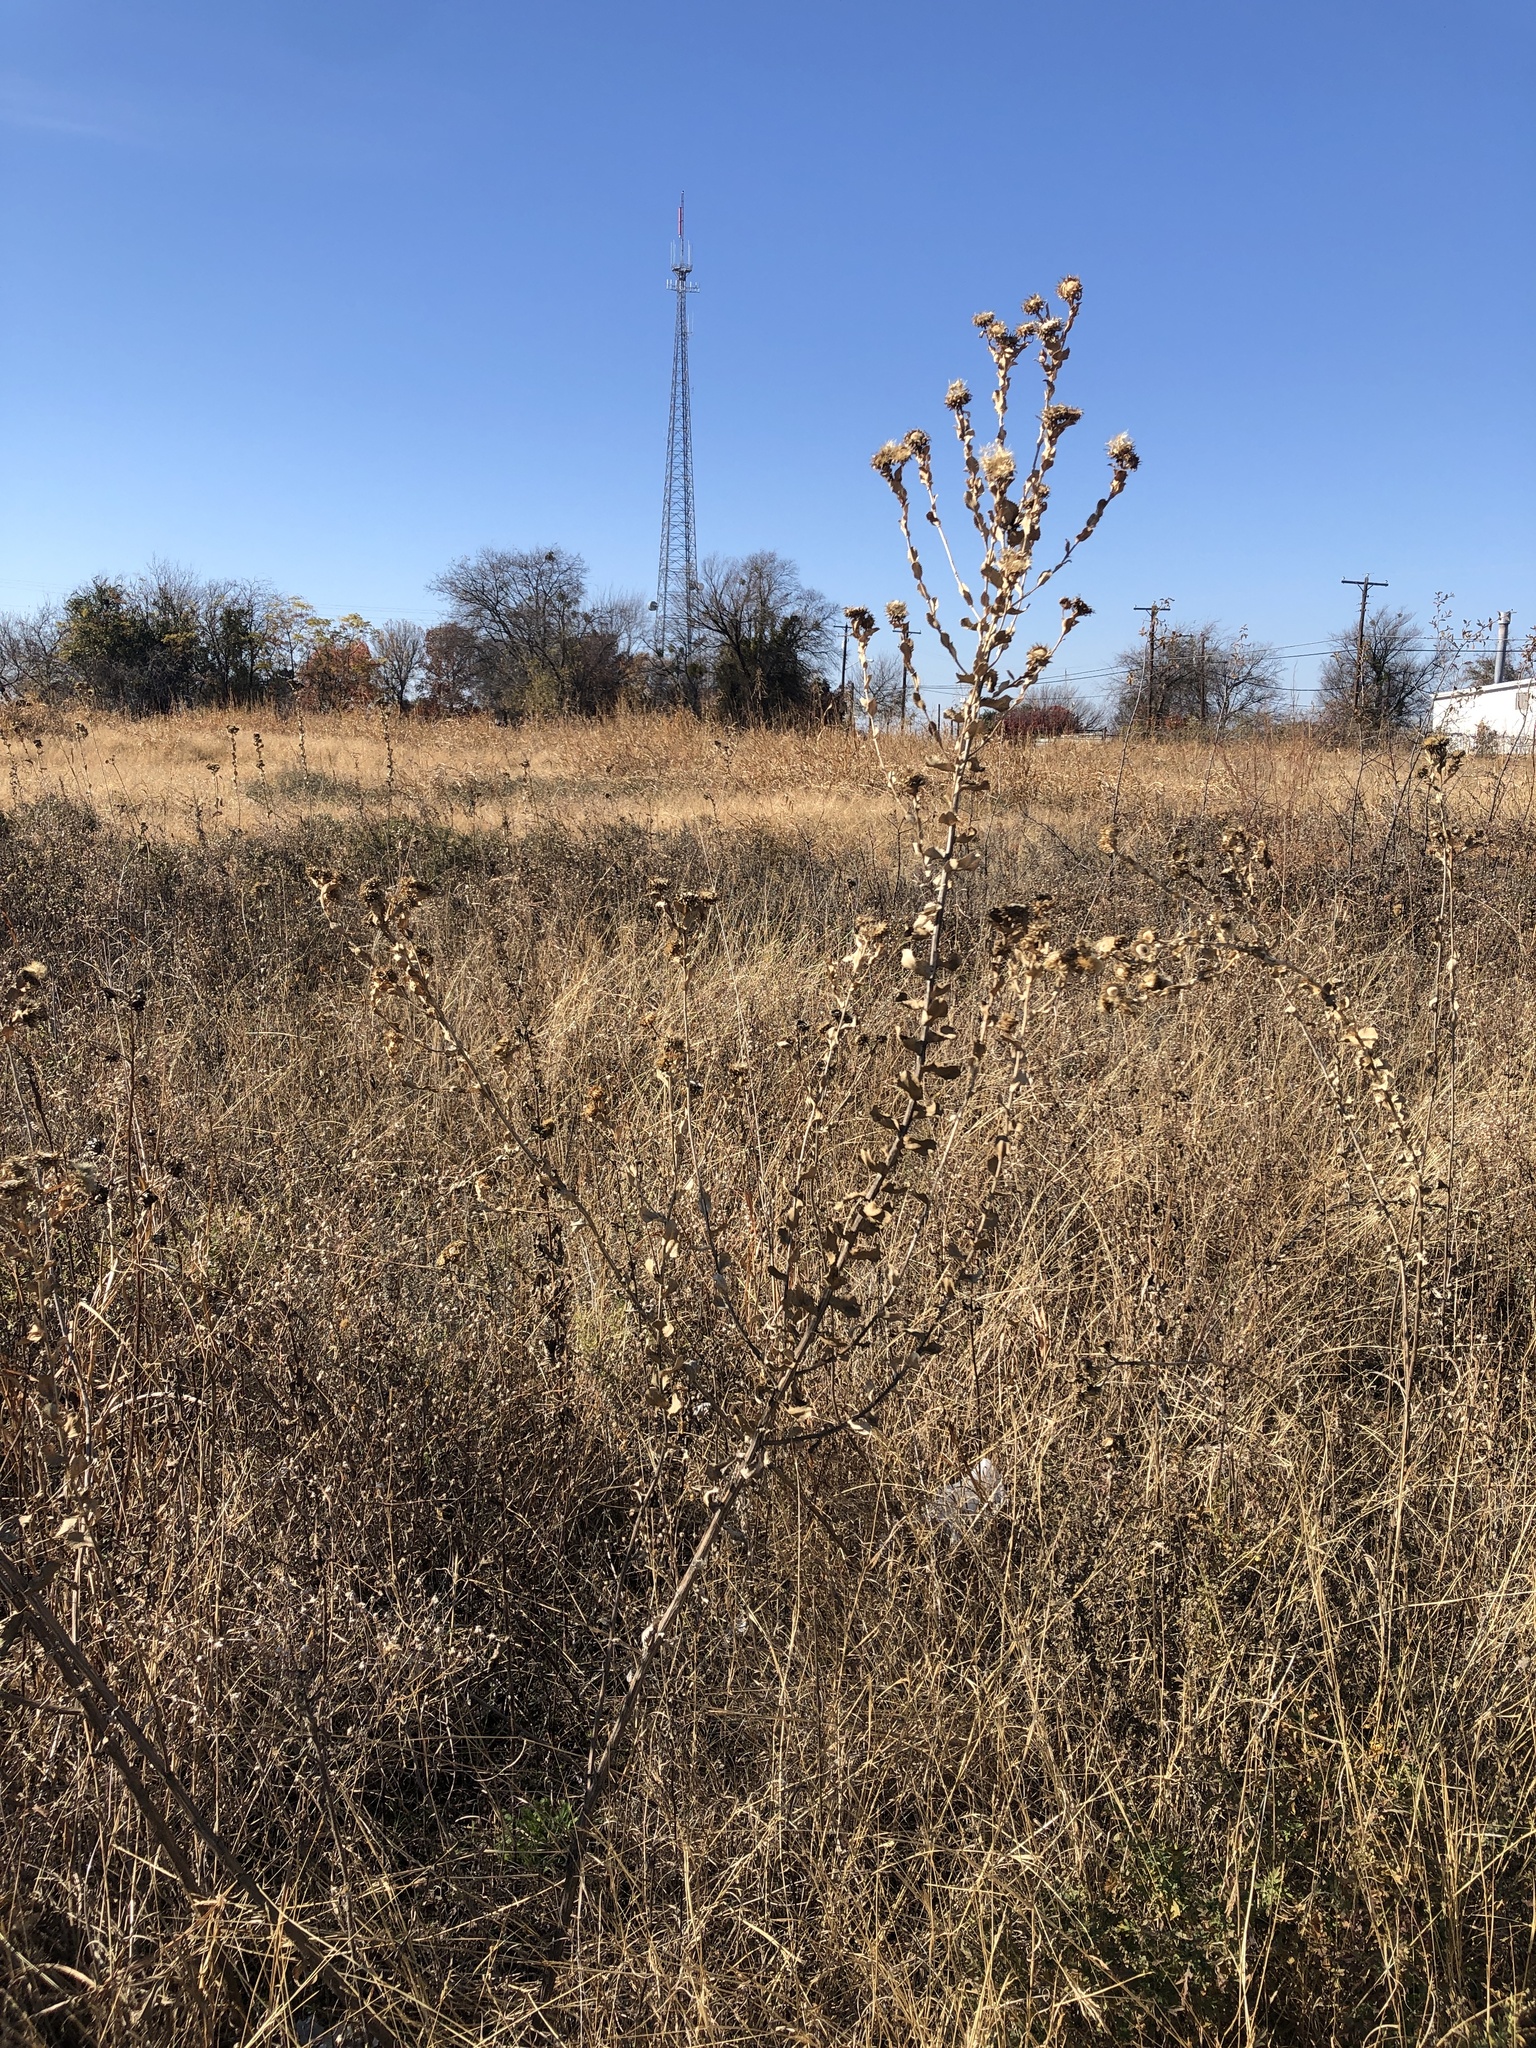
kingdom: Plantae
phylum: Tracheophyta
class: Magnoliopsida
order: Asterales
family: Asteraceae
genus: Grindelia
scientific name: Grindelia ciliata
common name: Goldenweed
